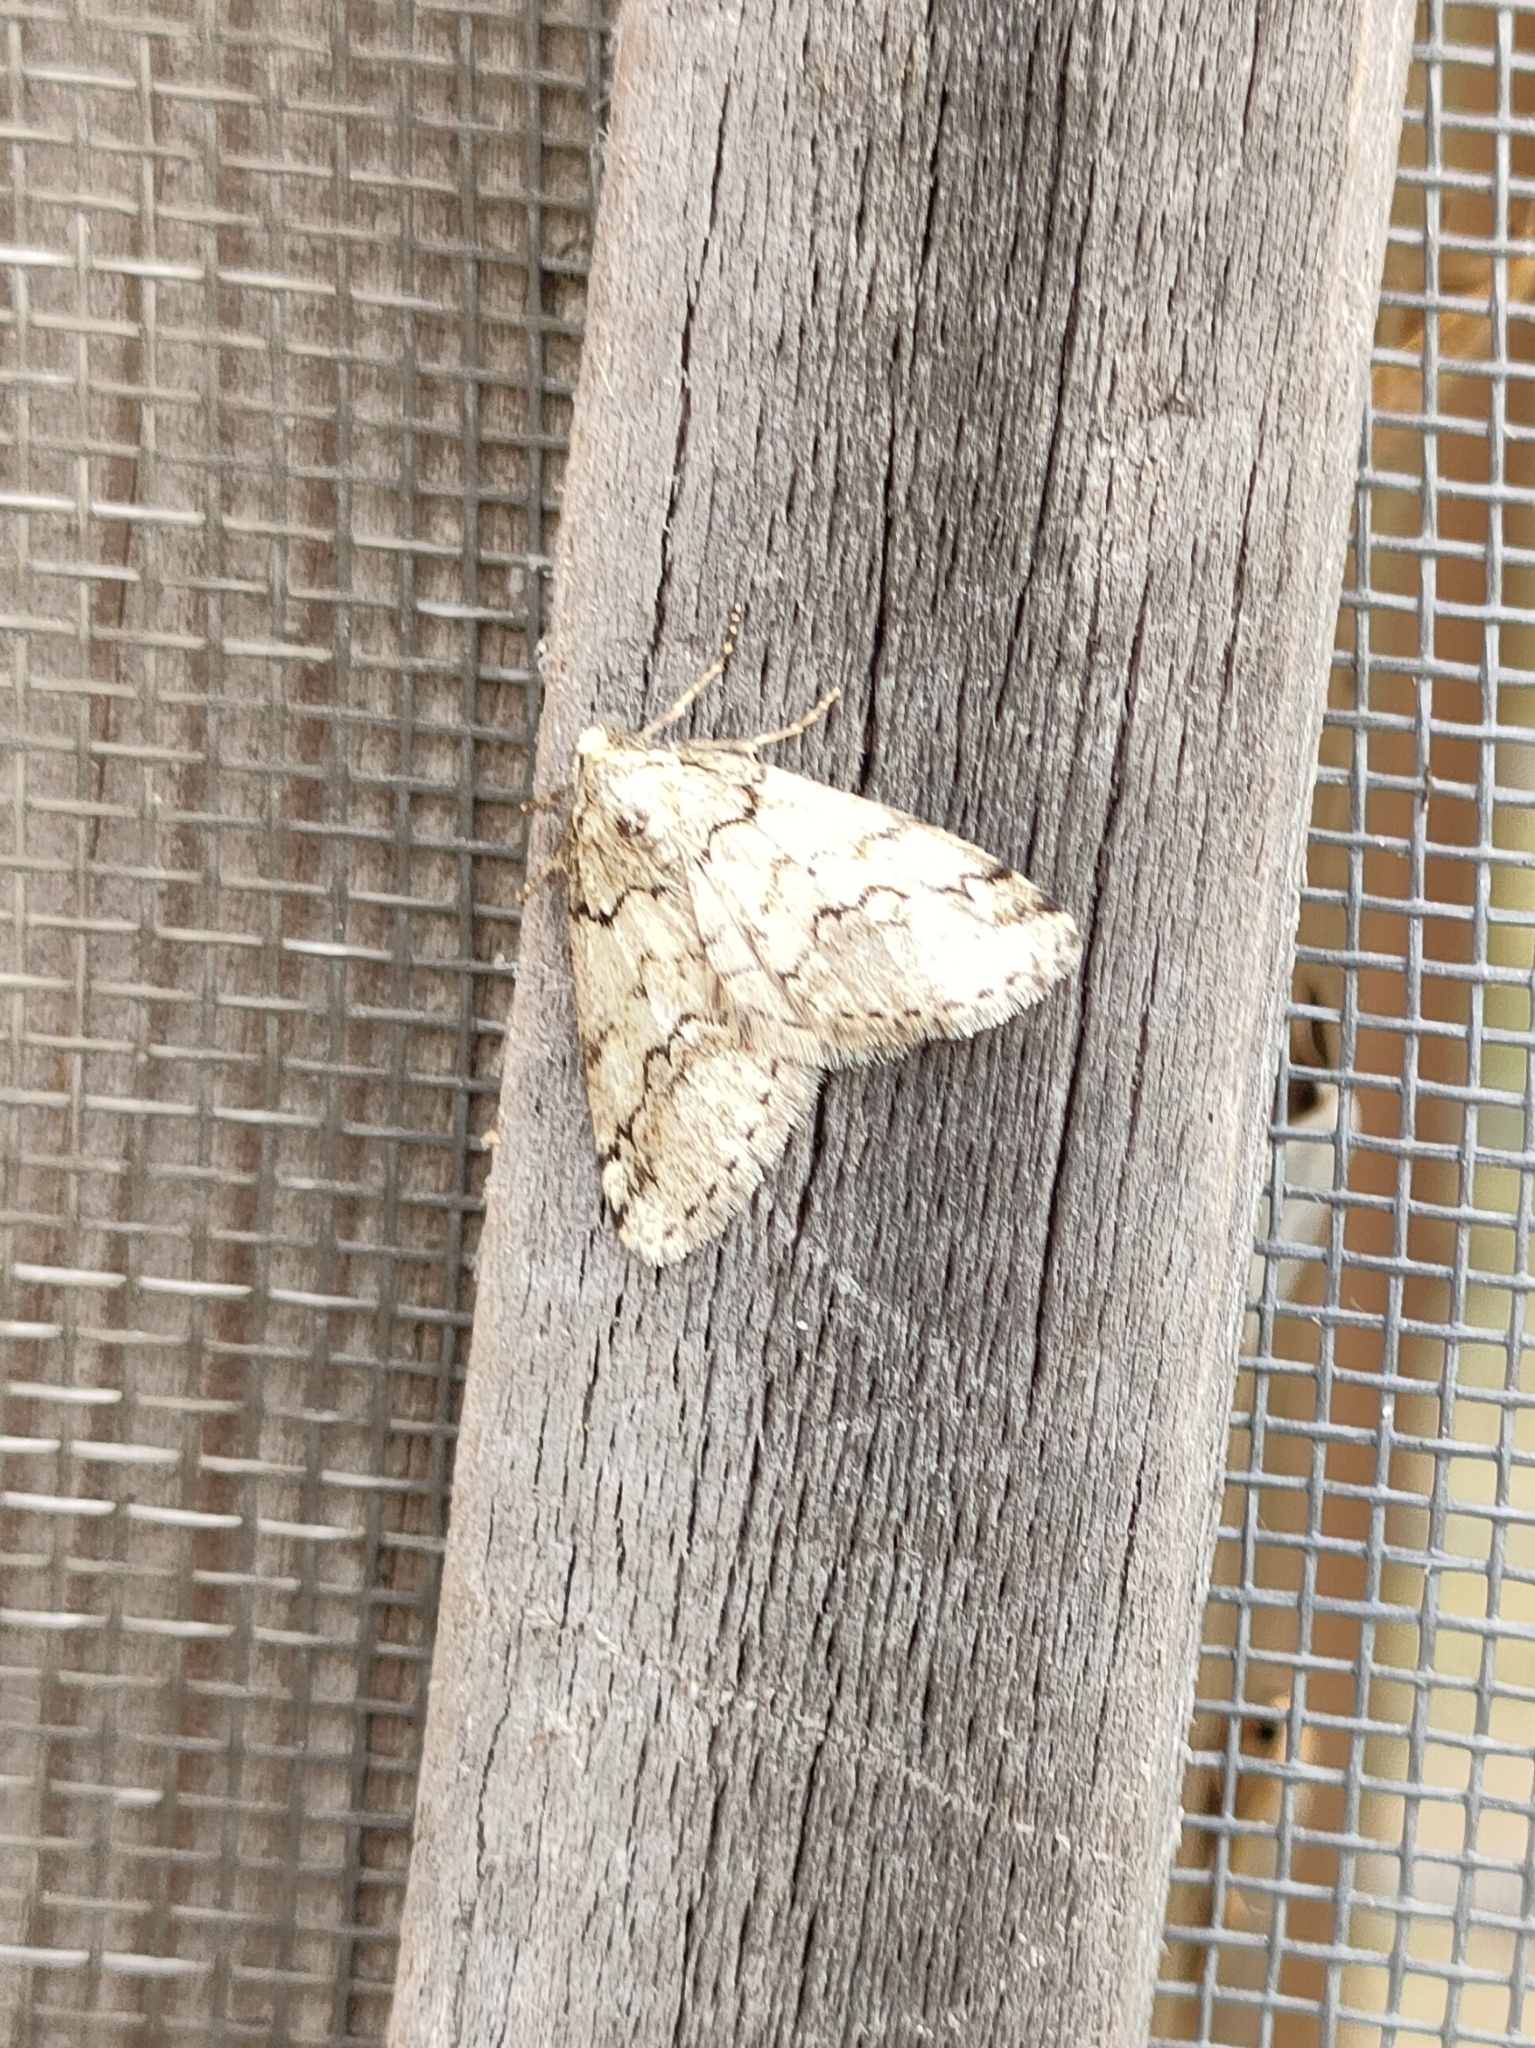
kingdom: Animalia
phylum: Arthropoda
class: Insecta
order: Lepidoptera
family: Geometridae
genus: Tephronia
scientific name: Tephronia lhommaria
